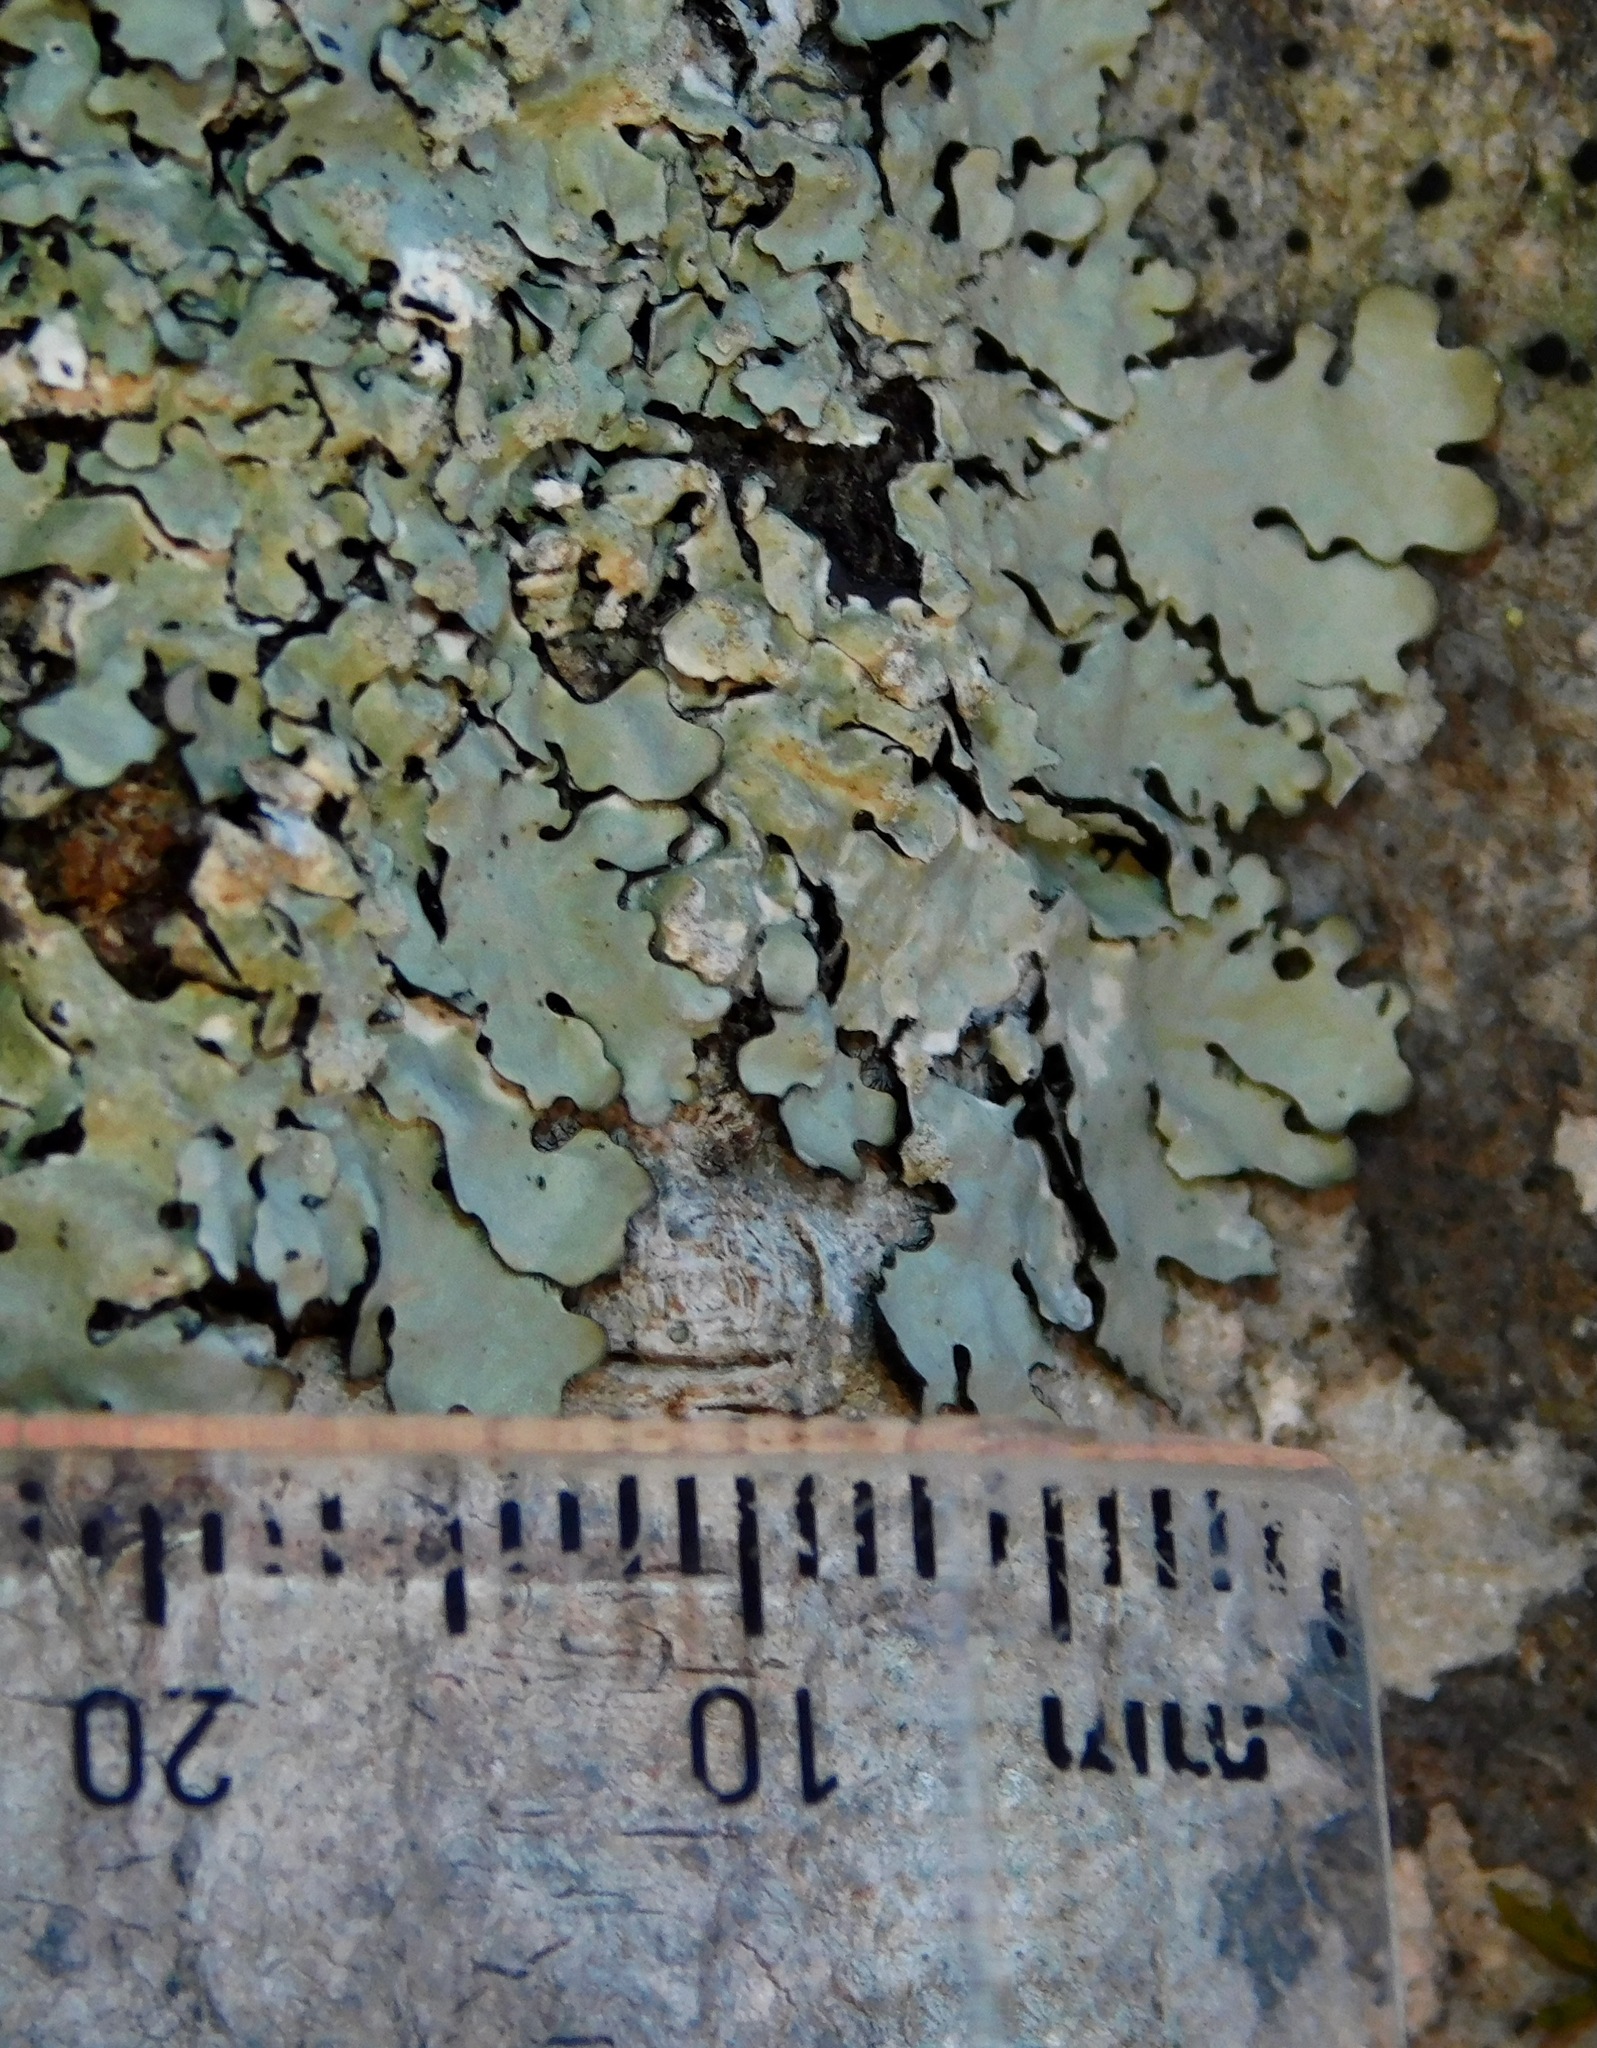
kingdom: Fungi
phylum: Ascomycota
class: Lecanoromycetes
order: Lecanorales
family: Parmeliaceae
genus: Myelochroa
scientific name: Myelochroa aurulenta
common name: Powdery axil-bristle lichen
